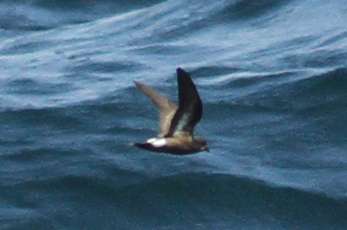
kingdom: Animalia
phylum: Chordata
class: Aves
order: Procellariiformes
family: Hydrobatidae
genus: Hydrobates
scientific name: Hydrobates pelagicus
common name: European storm-petrel
